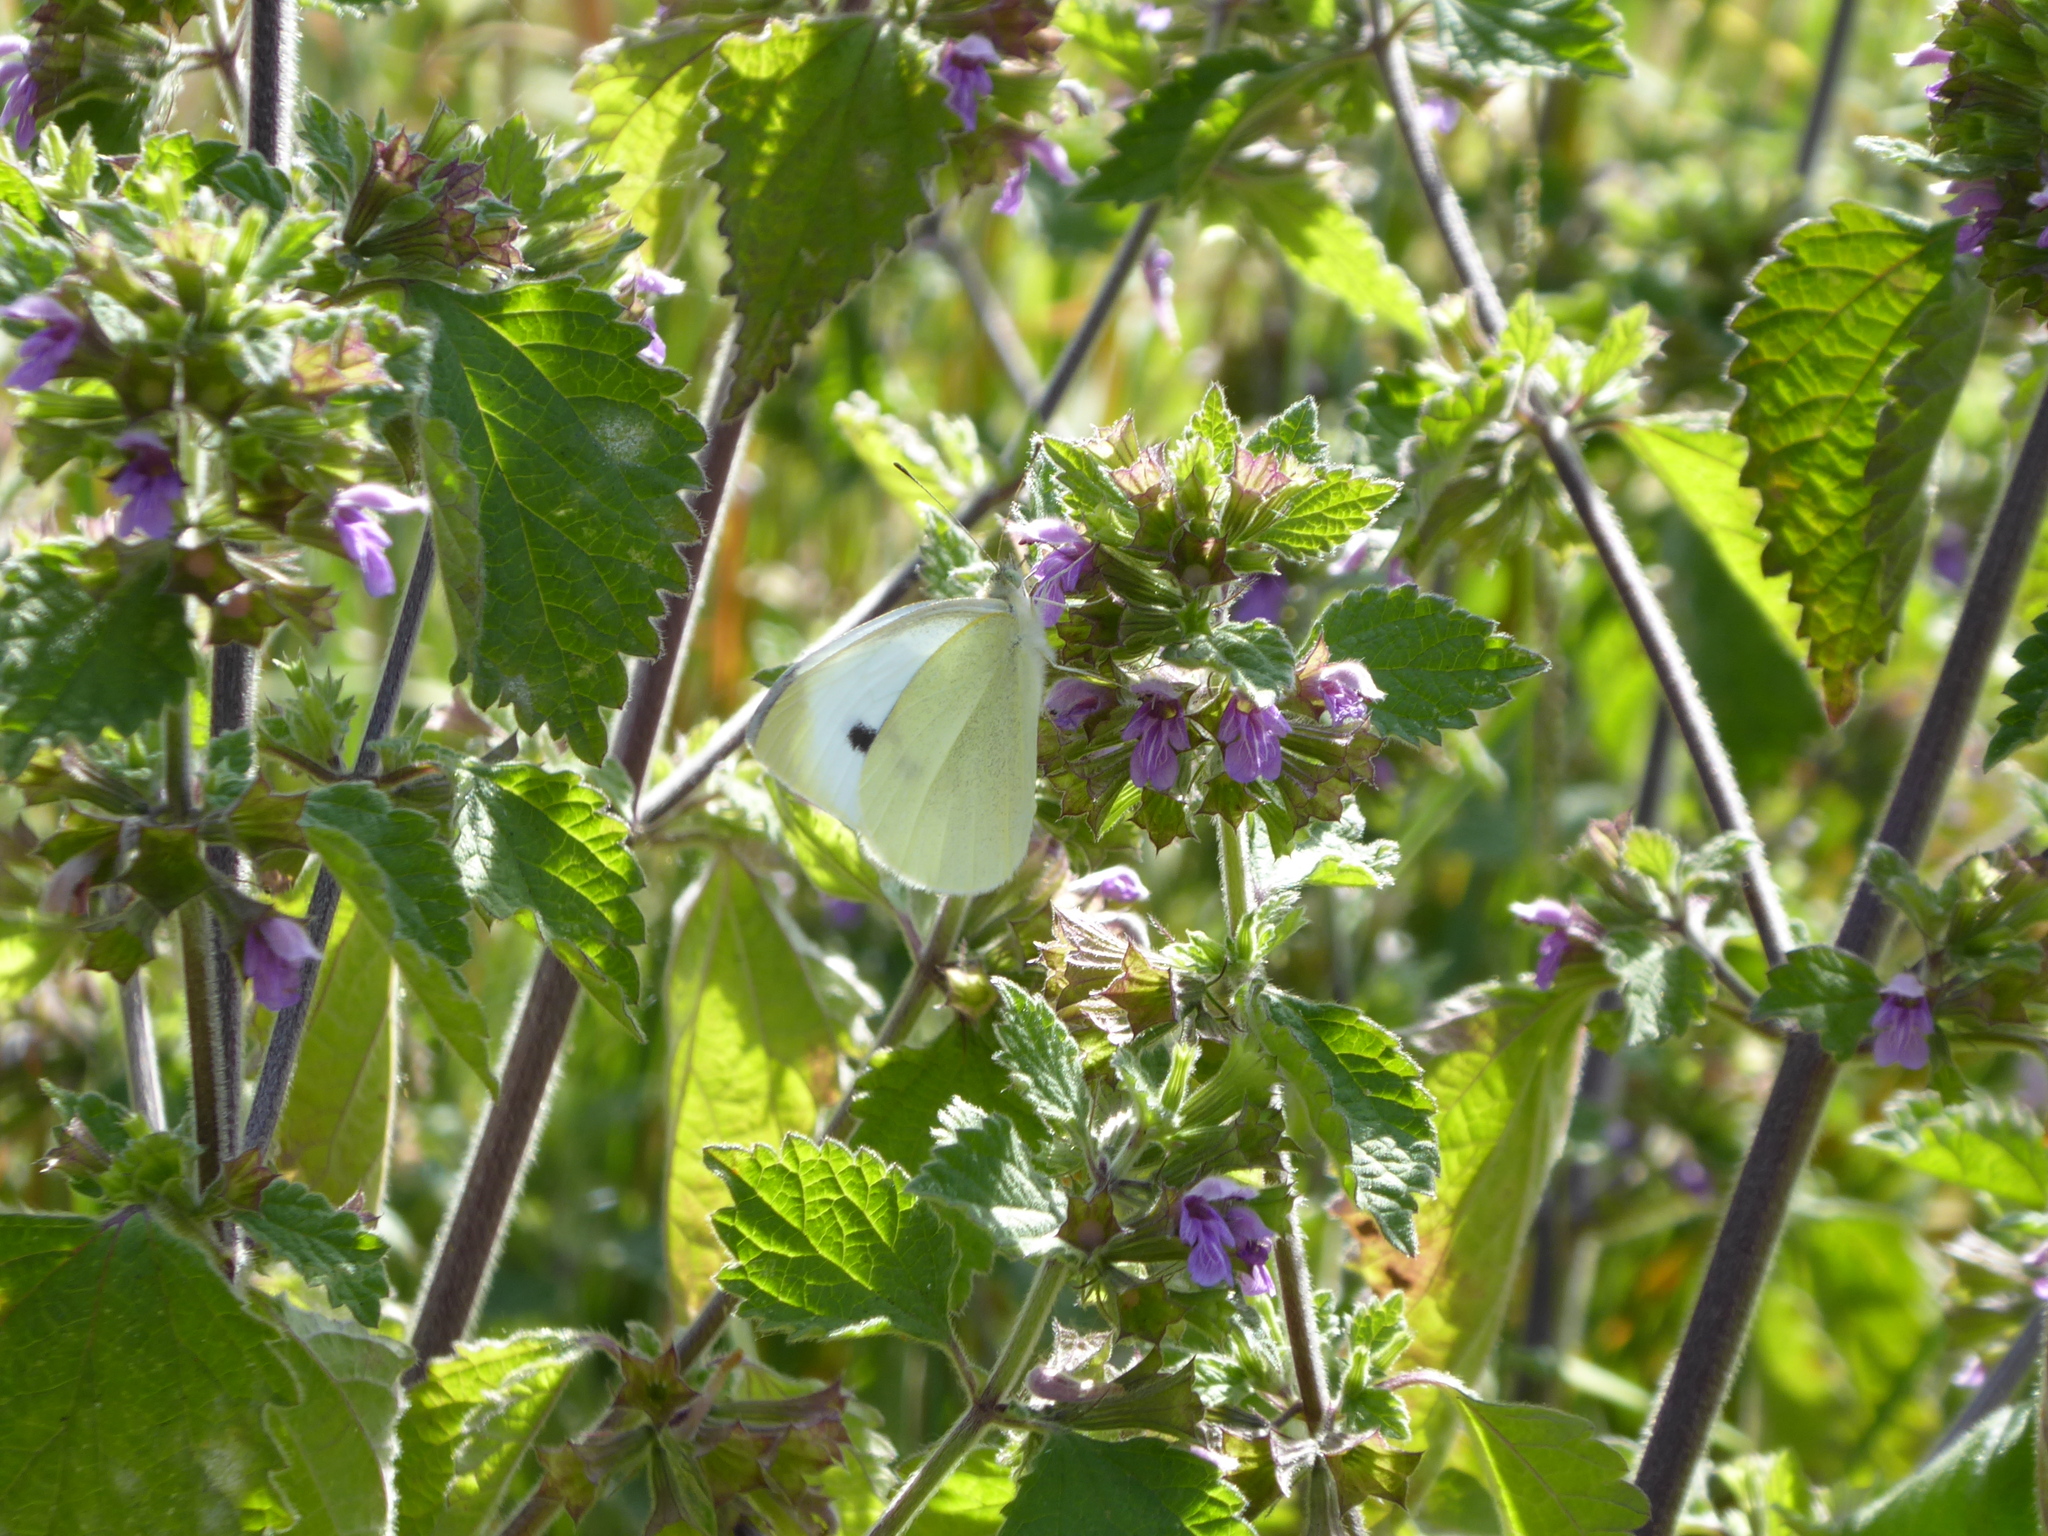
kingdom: Animalia
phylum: Arthropoda
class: Insecta
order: Lepidoptera
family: Pieridae
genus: Pieris
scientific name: Pieris rapae
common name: Small white
